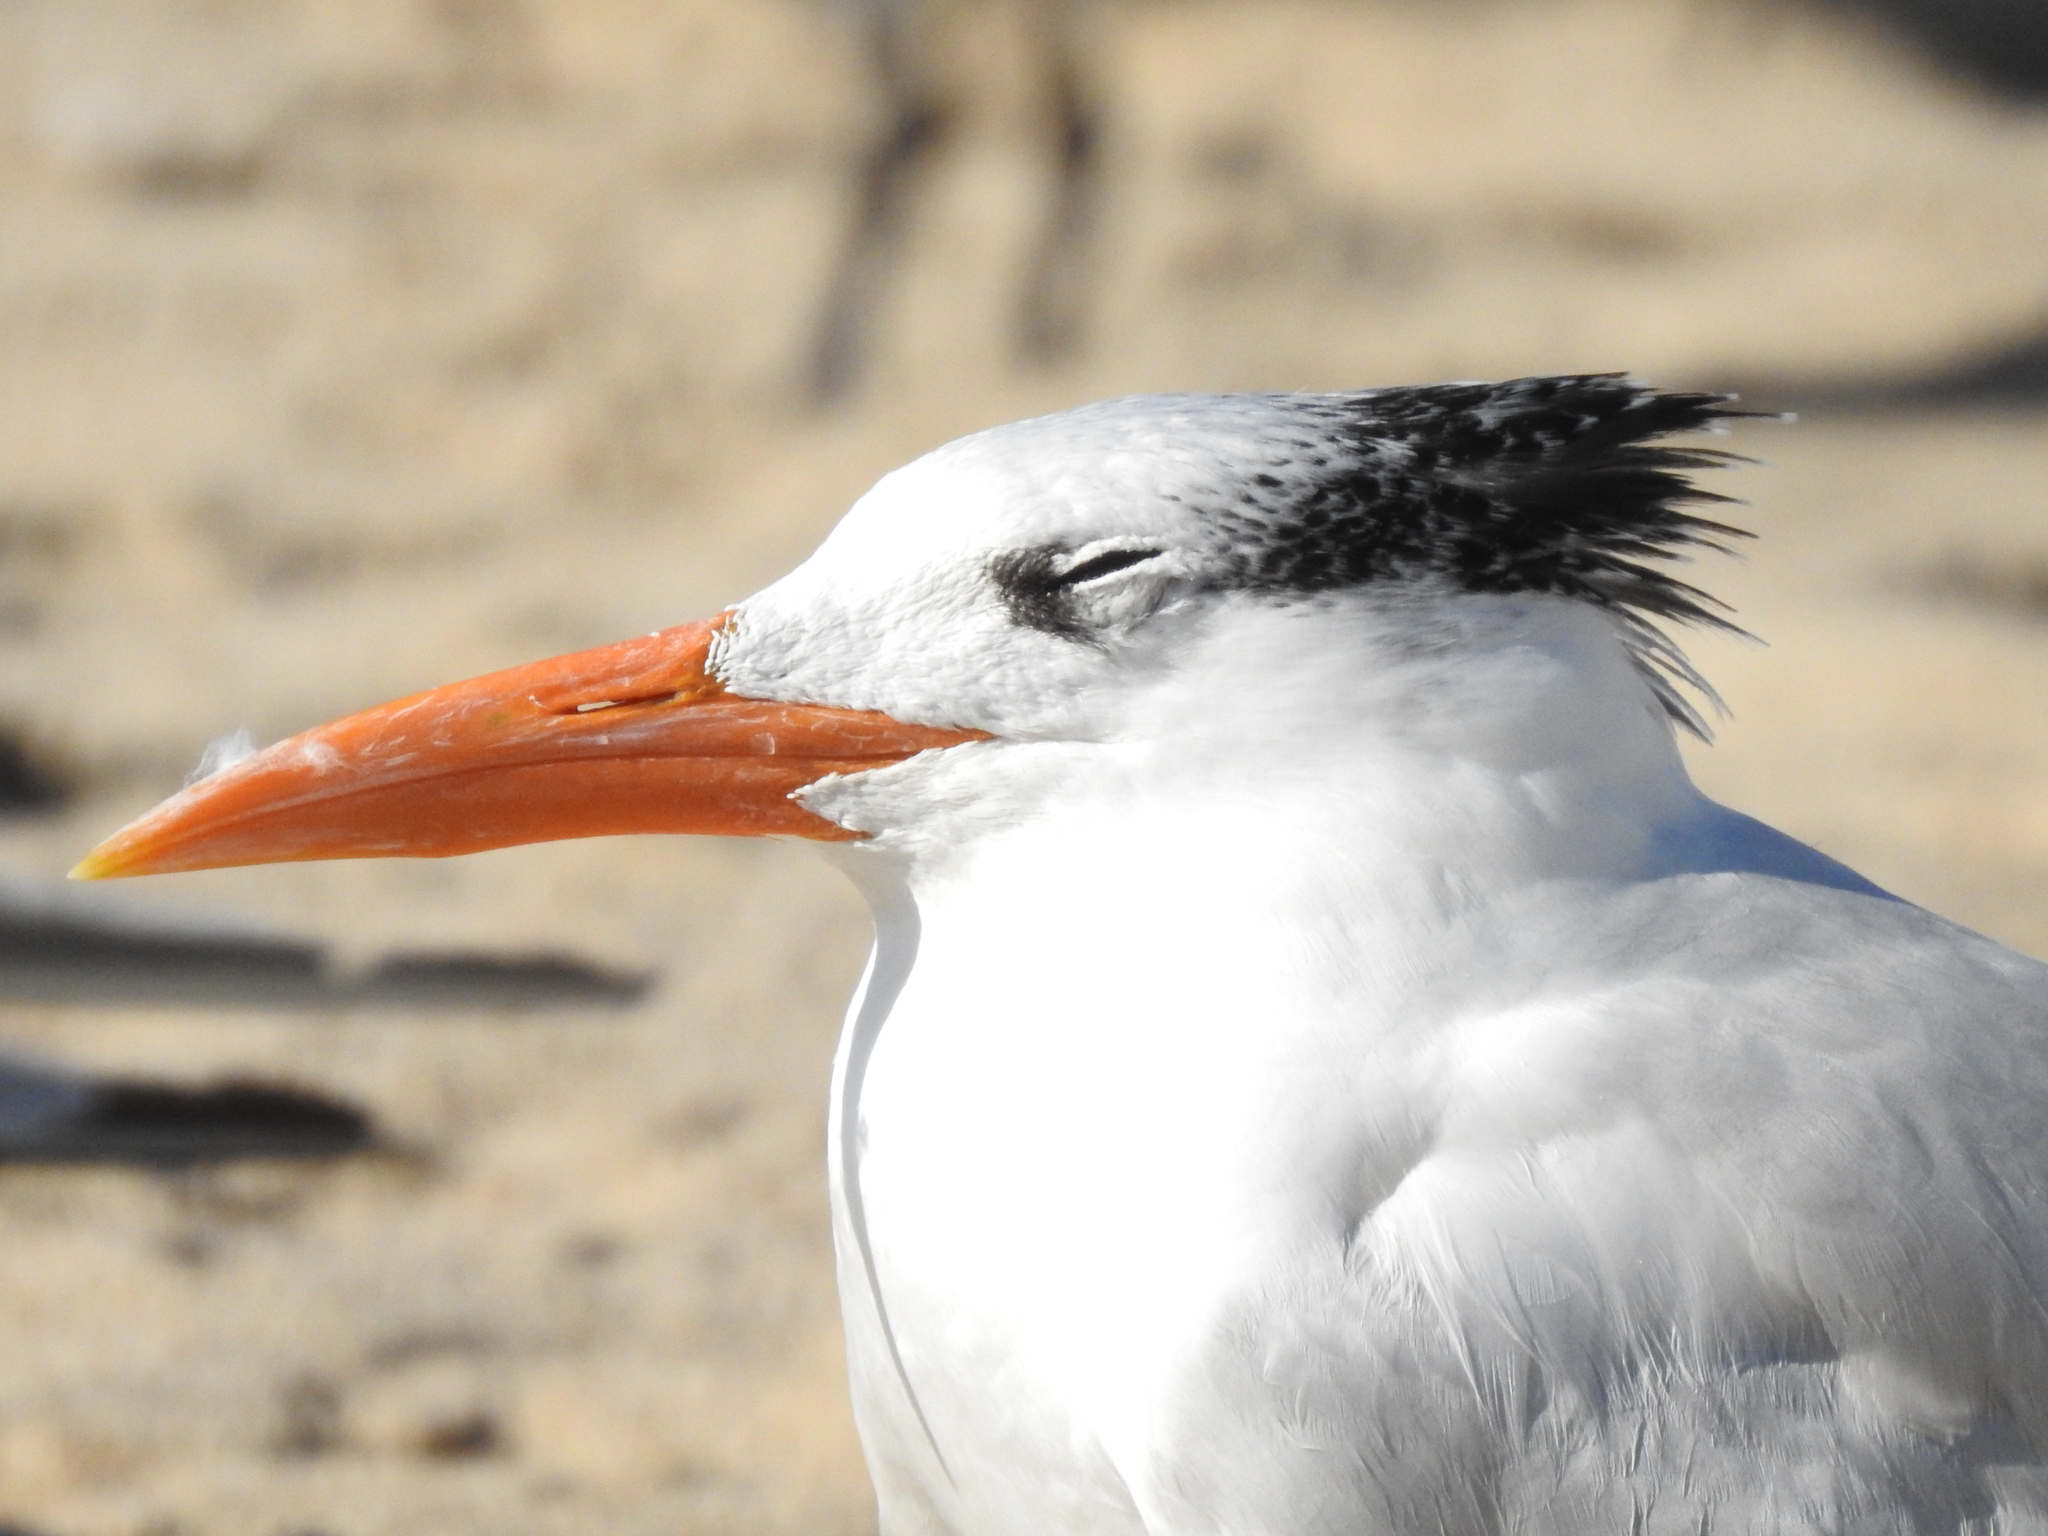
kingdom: Animalia
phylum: Chordata
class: Aves
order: Charadriiformes
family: Laridae
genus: Thalasseus
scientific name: Thalasseus maximus
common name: Royal tern
